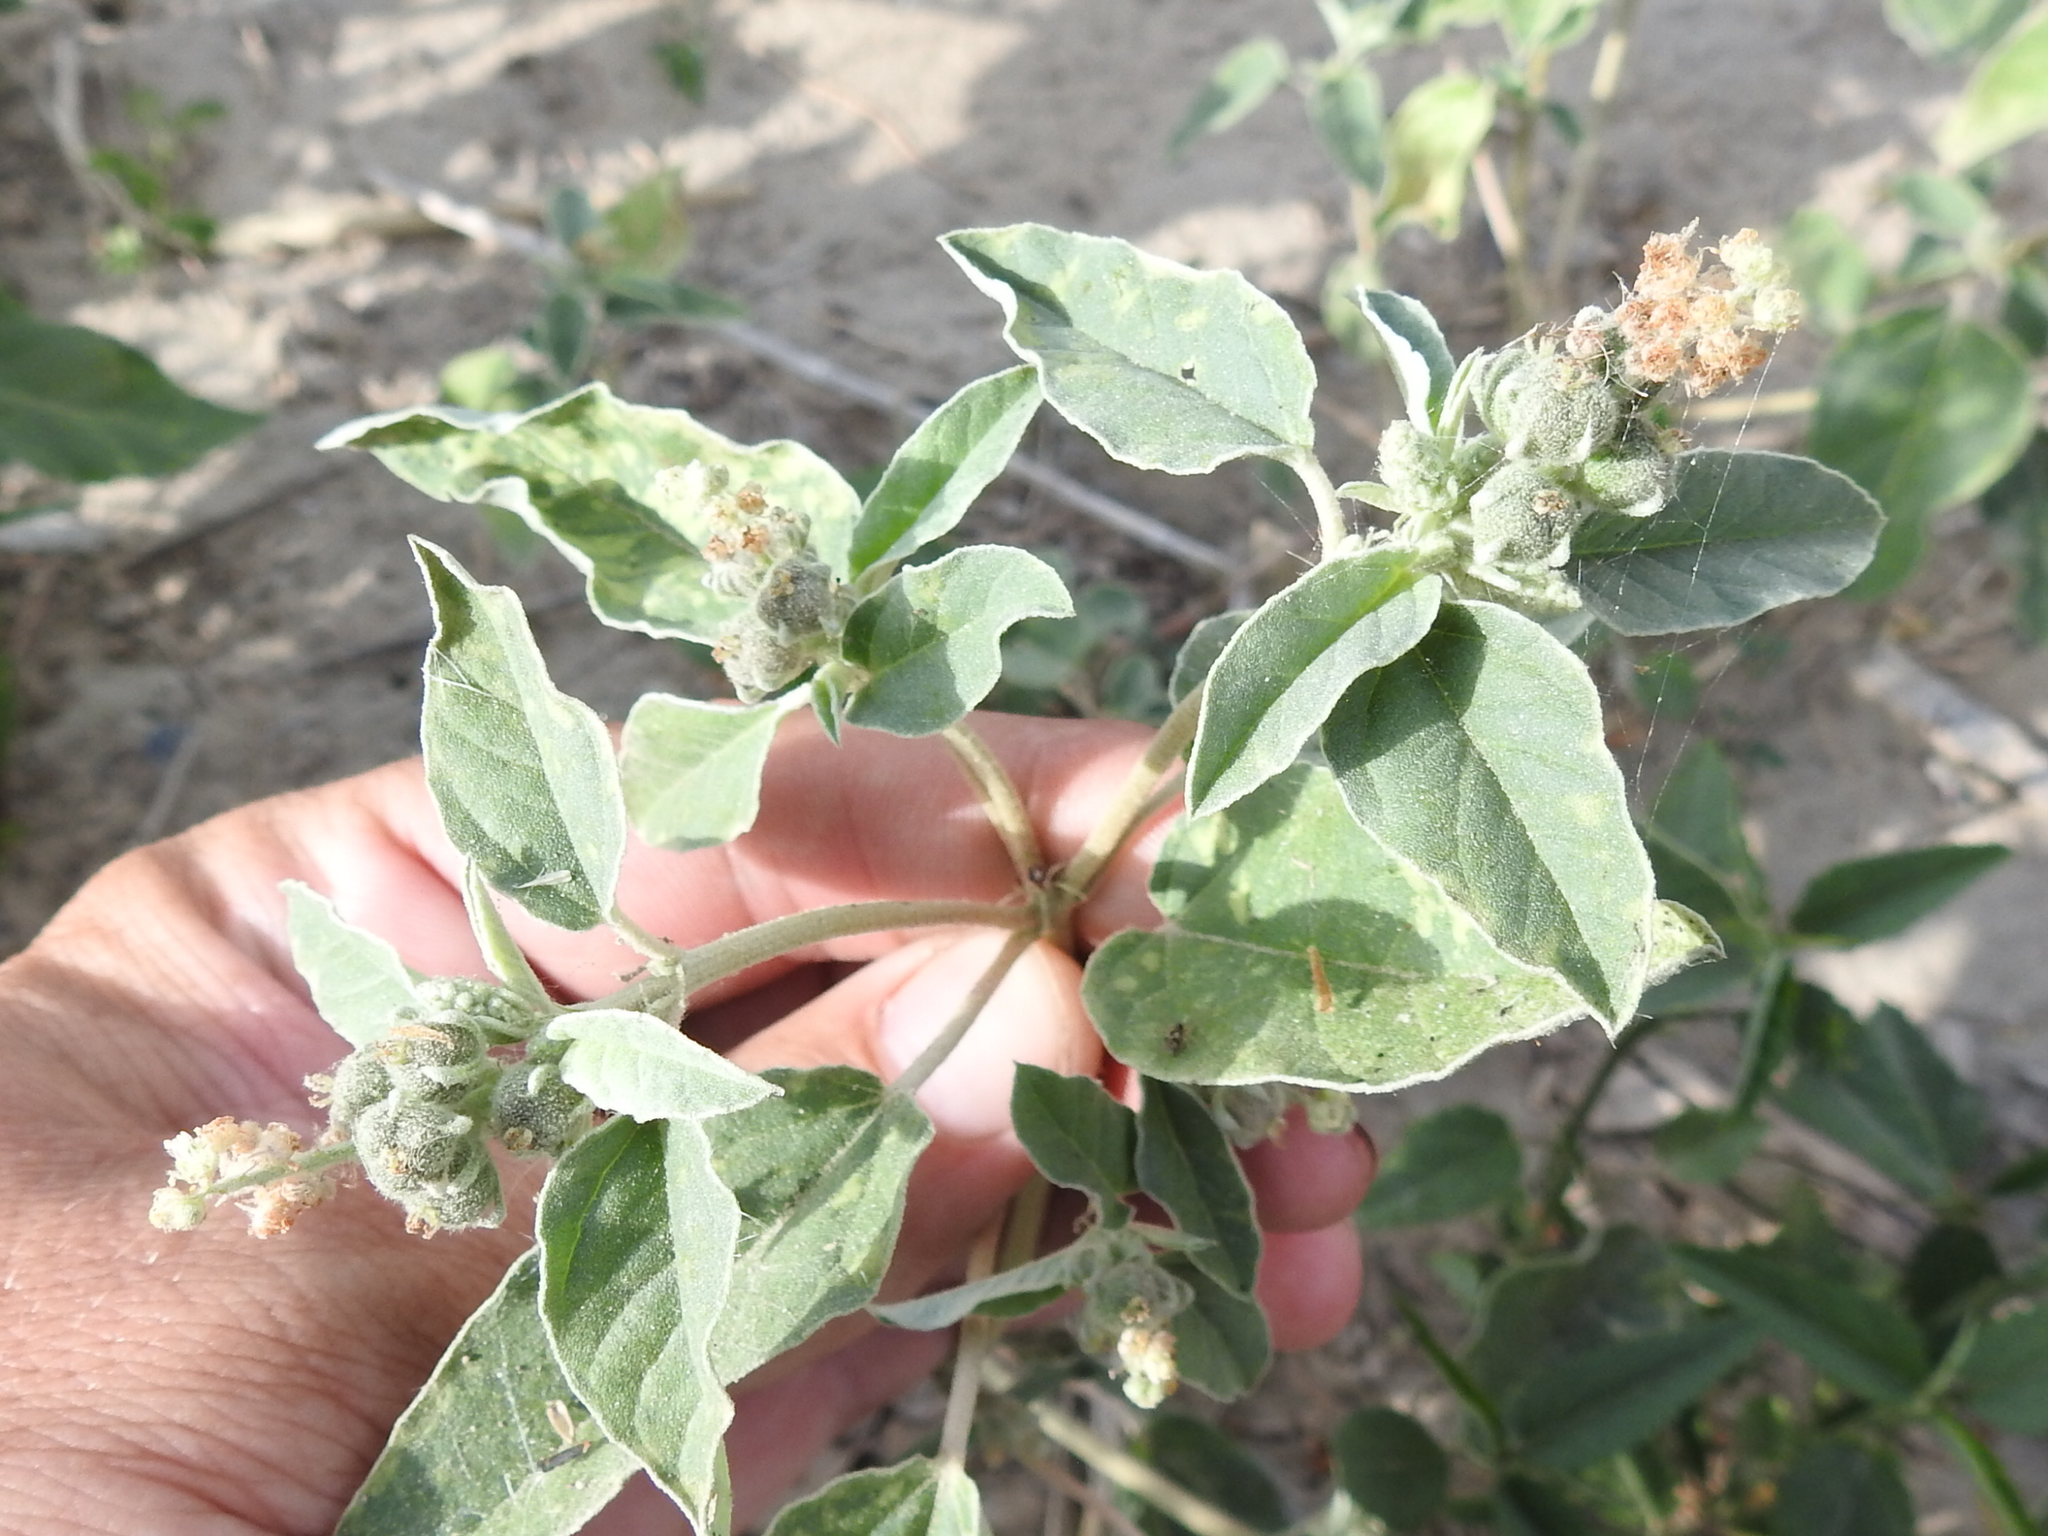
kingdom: Plantae
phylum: Tracheophyta
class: Magnoliopsida
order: Malpighiales
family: Euphorbiaceae
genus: Croton
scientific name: Croton leucophyllus
